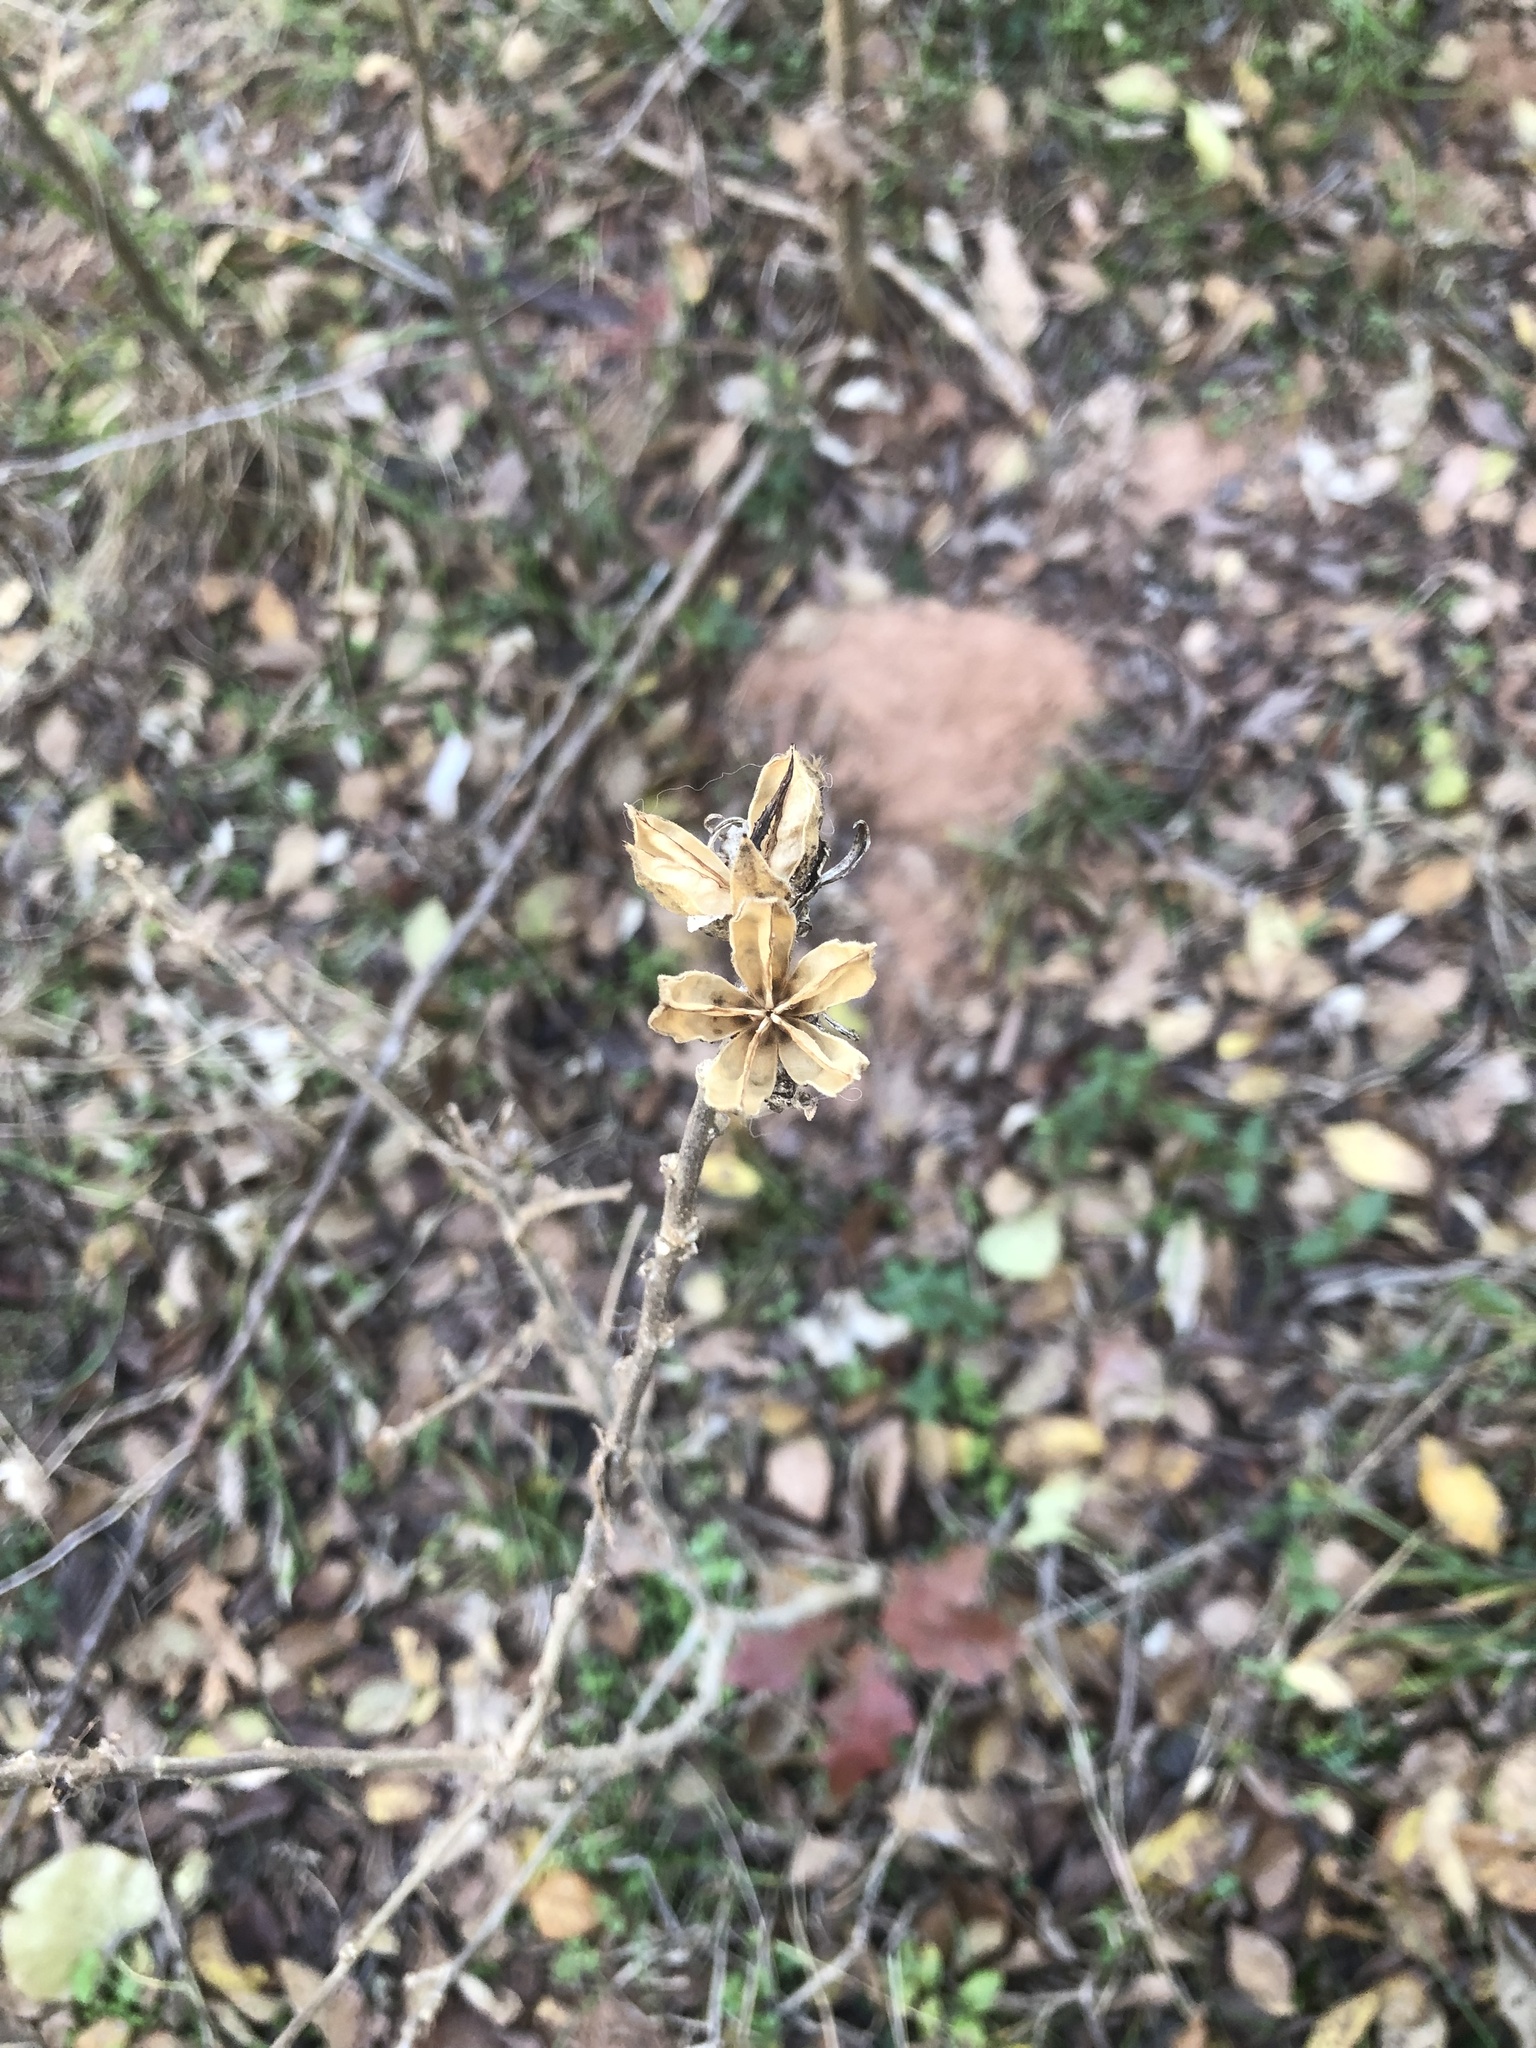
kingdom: Plantae
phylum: Tracheophyta
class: Magnoliopsida
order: Malvales
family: Malvaceae
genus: Hibiscus
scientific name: Hibiscus syriacus
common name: Syrian ketmia
